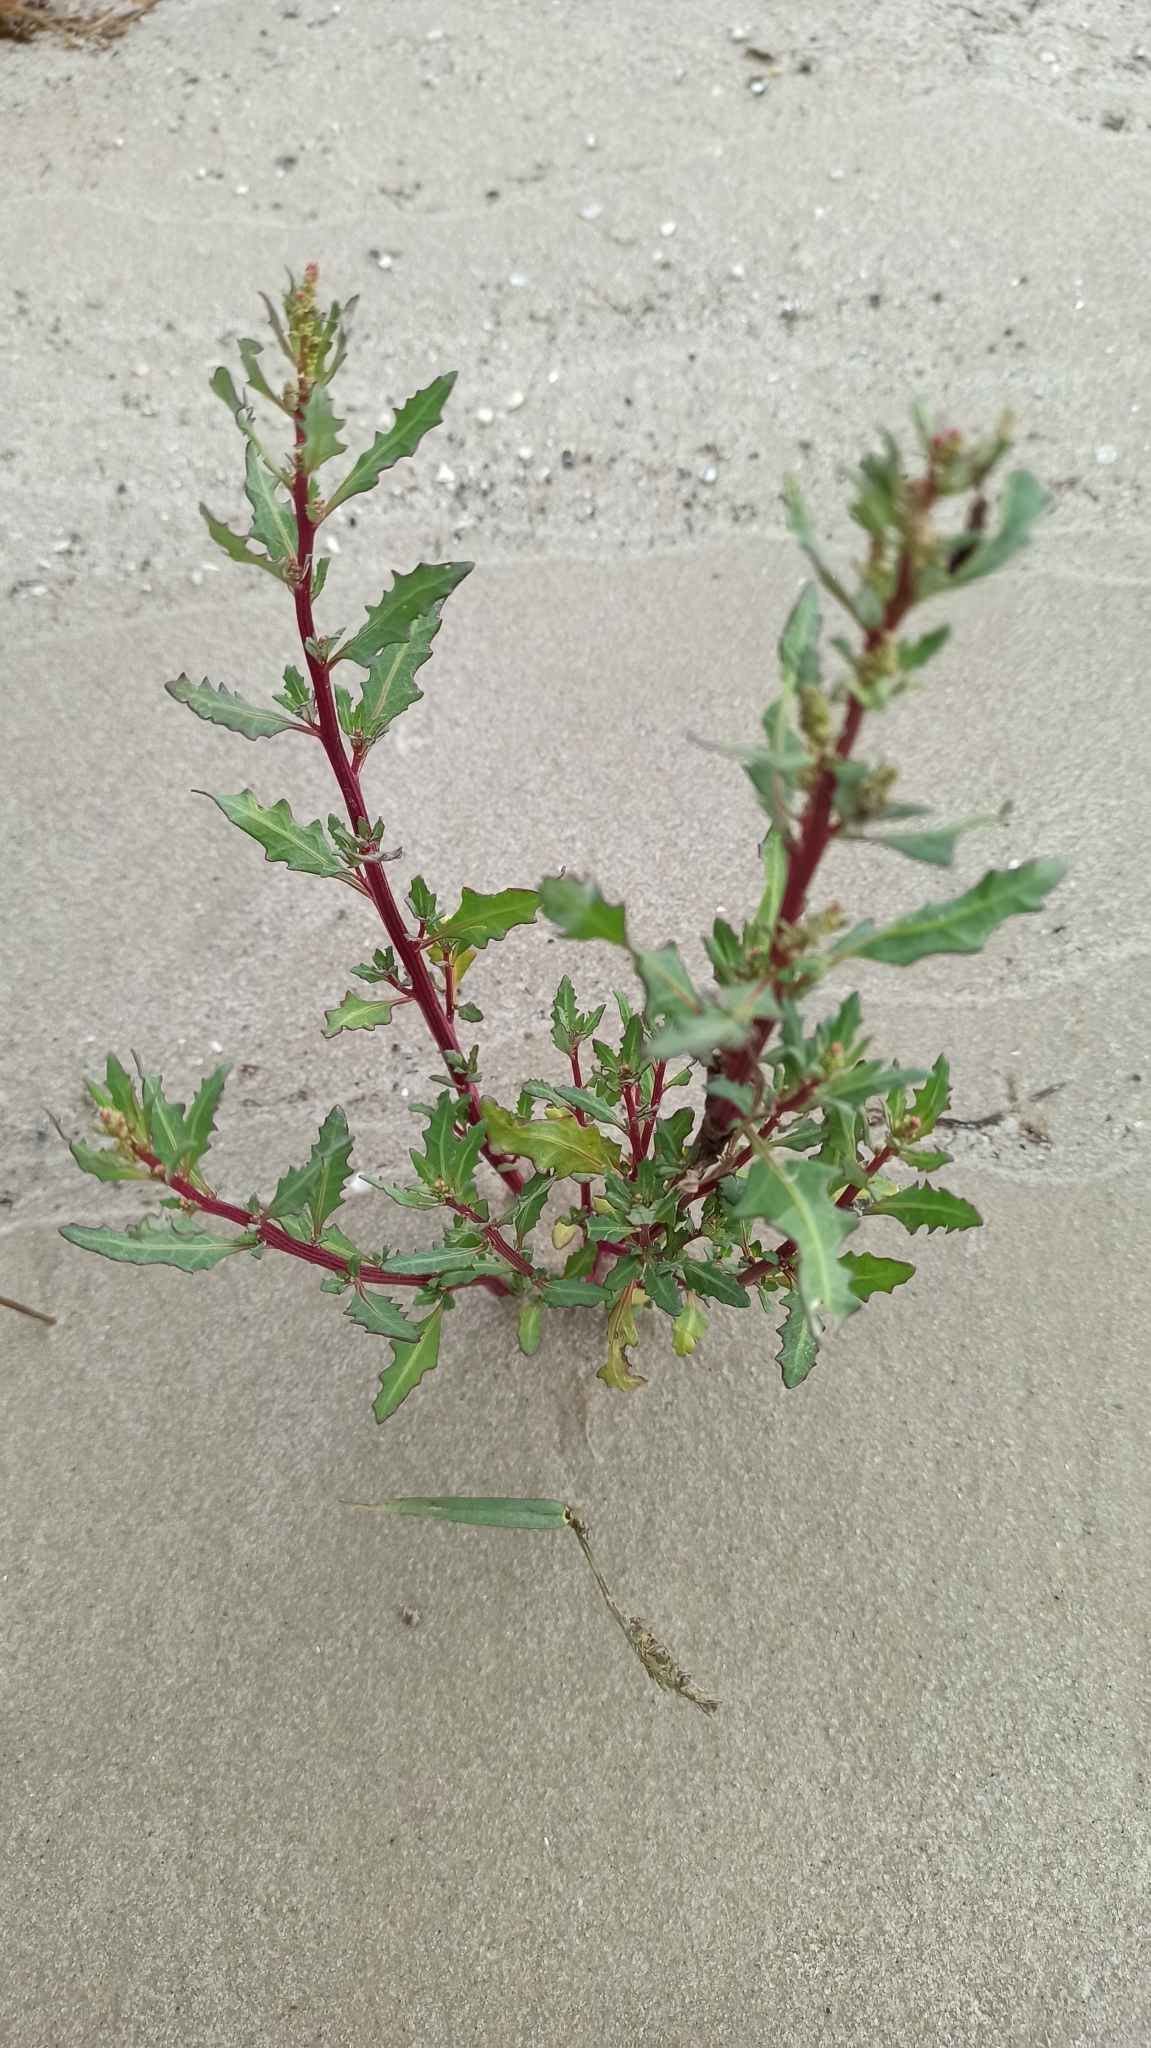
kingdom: Plantae
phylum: Tracheophyta
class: Magnoliopsida
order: Caryophyllales
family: Amaranthaceae
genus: Oxybasis
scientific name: Oxybasis glauca
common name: Glaucous goosefoot
